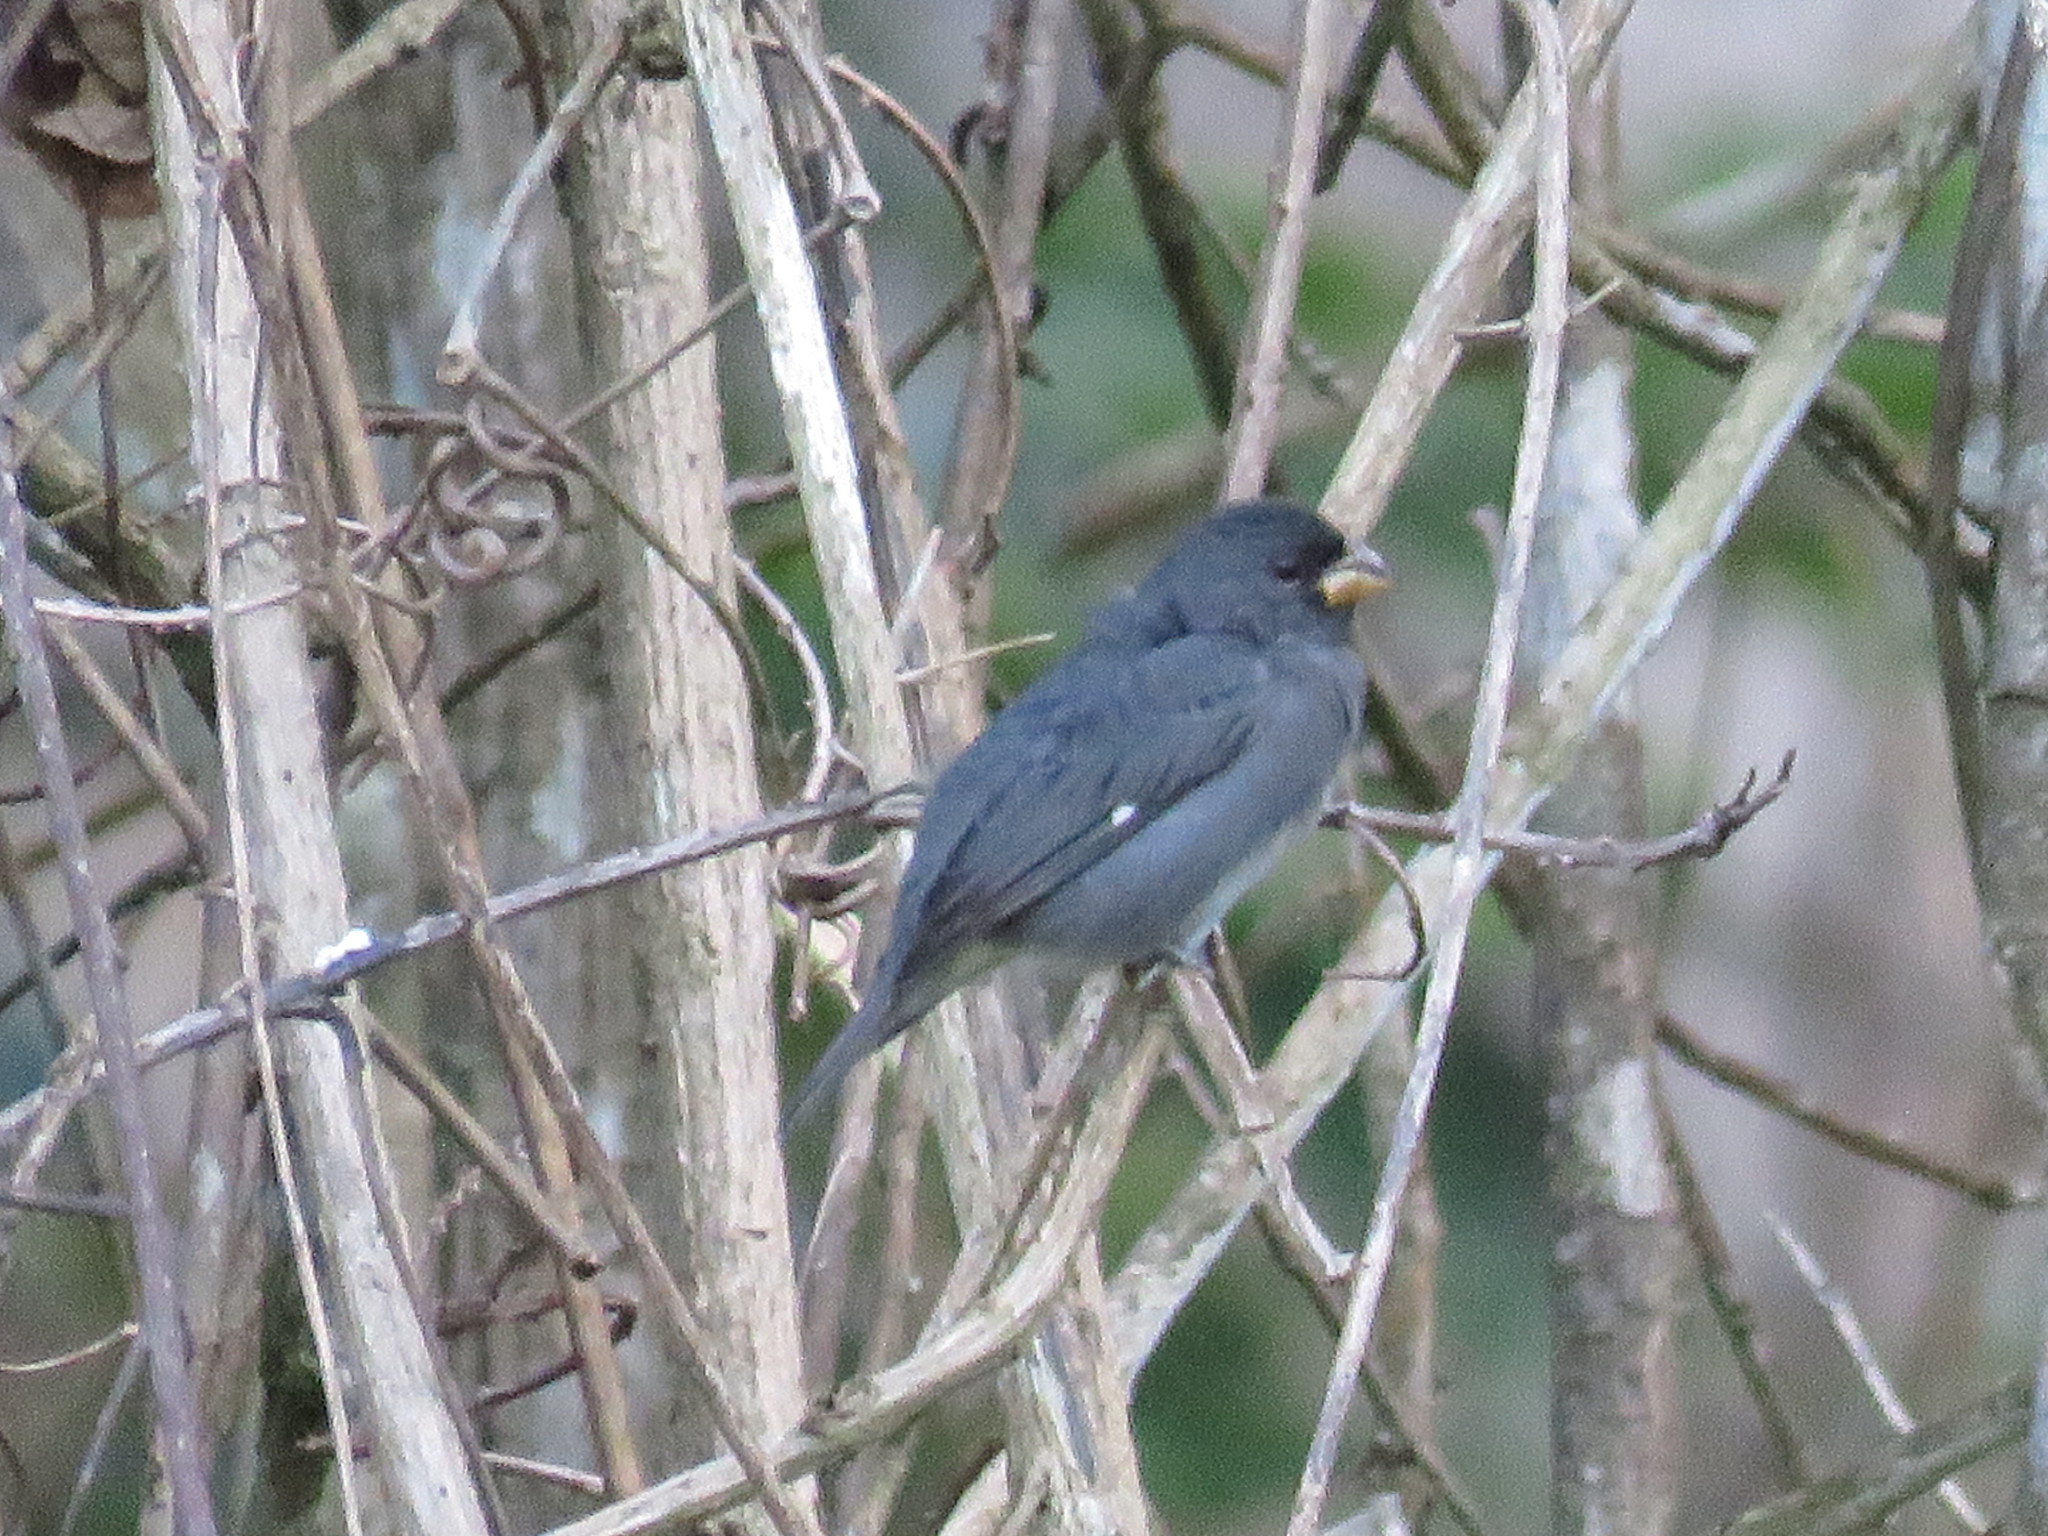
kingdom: Animalia
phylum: Chordata
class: Aves
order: Passeriformes
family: Thraupidae
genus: Sporophila
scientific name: Sporophila schistacea
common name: Slate-colored seedeater
